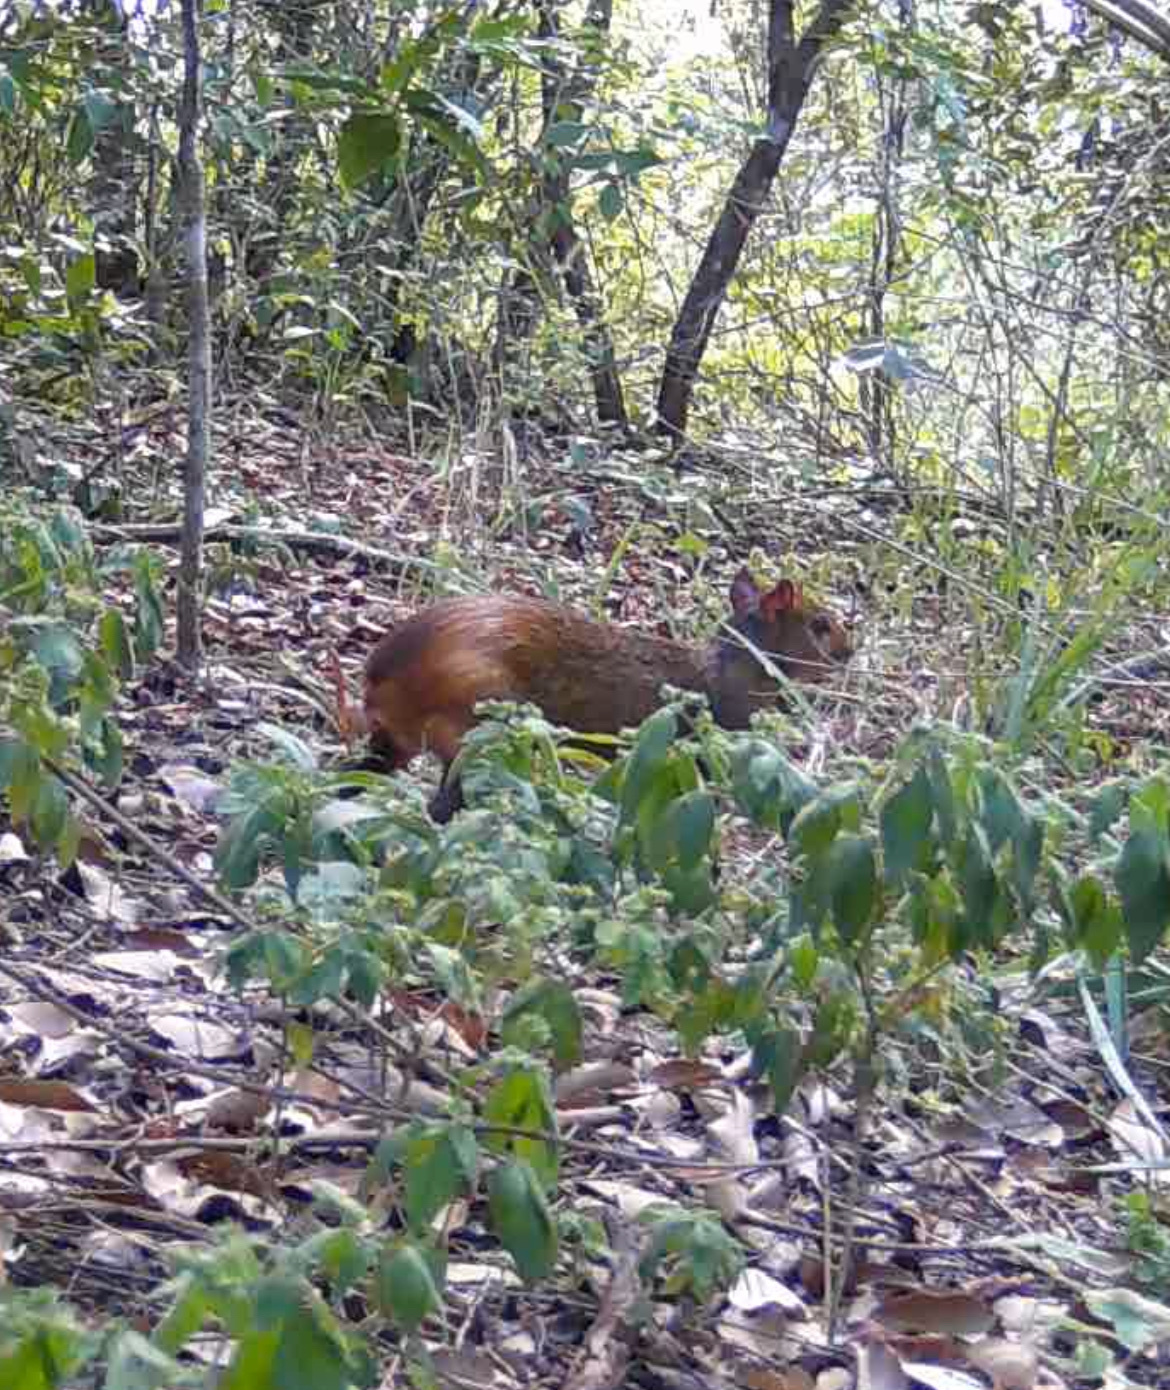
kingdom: Animalia
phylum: Chordata
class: Mammalia
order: Rodentia
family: Dasyproctidae
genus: Dasyprocta
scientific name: Dasyprocta iacki
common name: Iack’s red-rumped agouti
